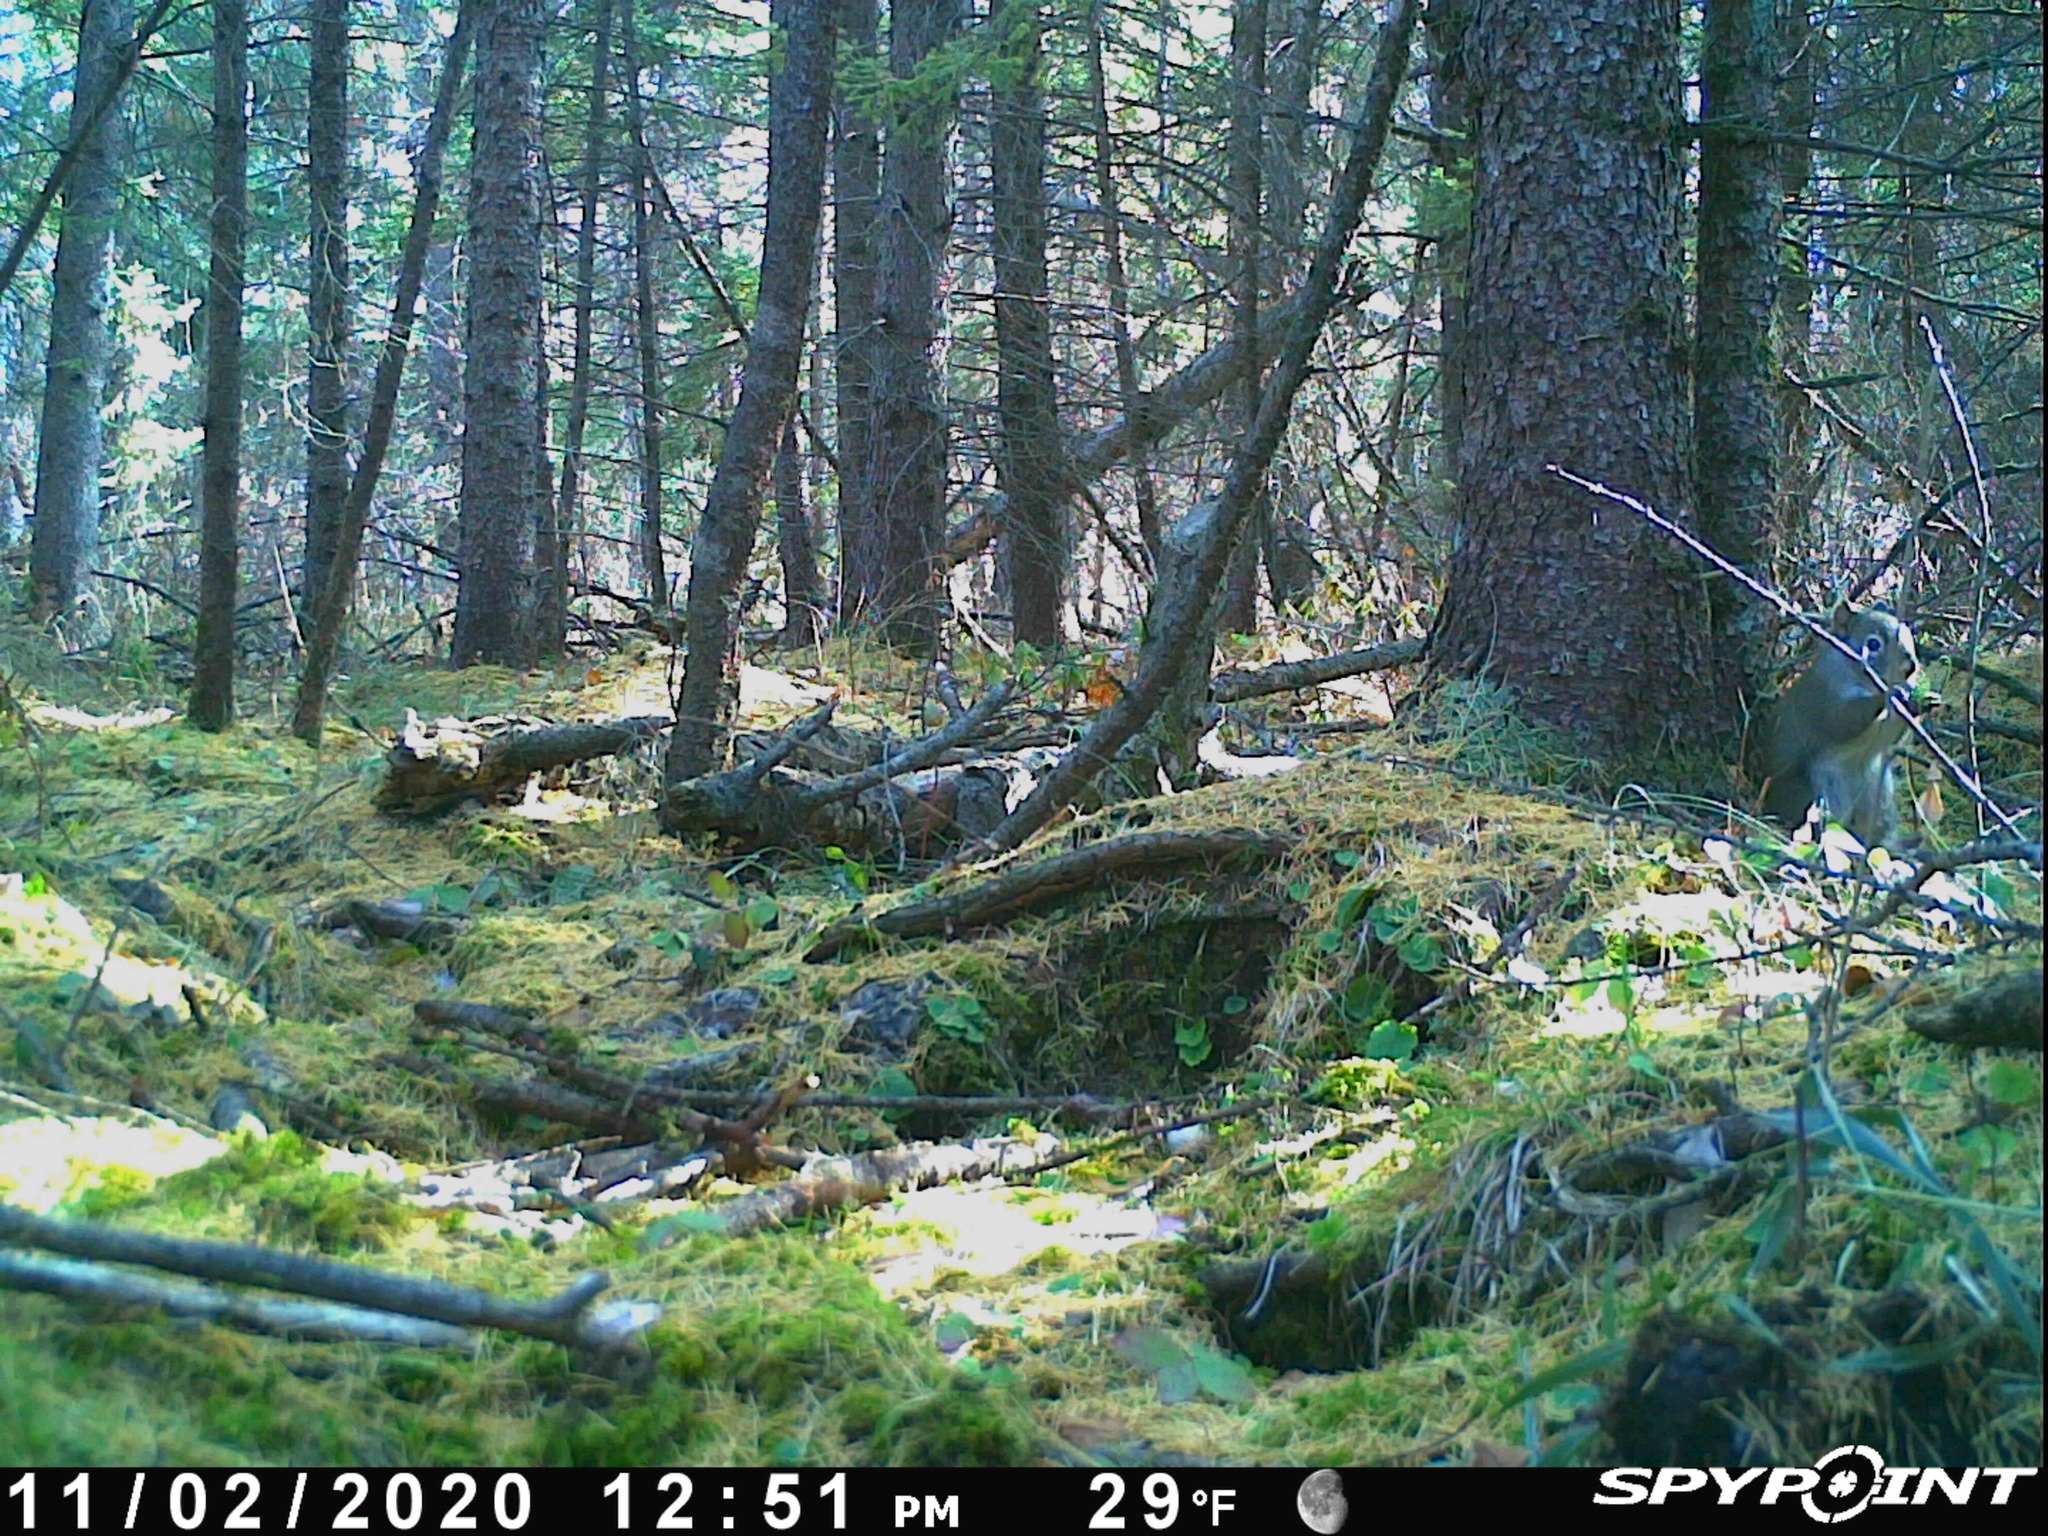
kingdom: Animalia
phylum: Chordata
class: Mammalia
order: Rodentia
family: Sciuridae
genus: Tamiasciurus
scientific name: Tamiasciurus hudsonicus
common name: Red squirrel
